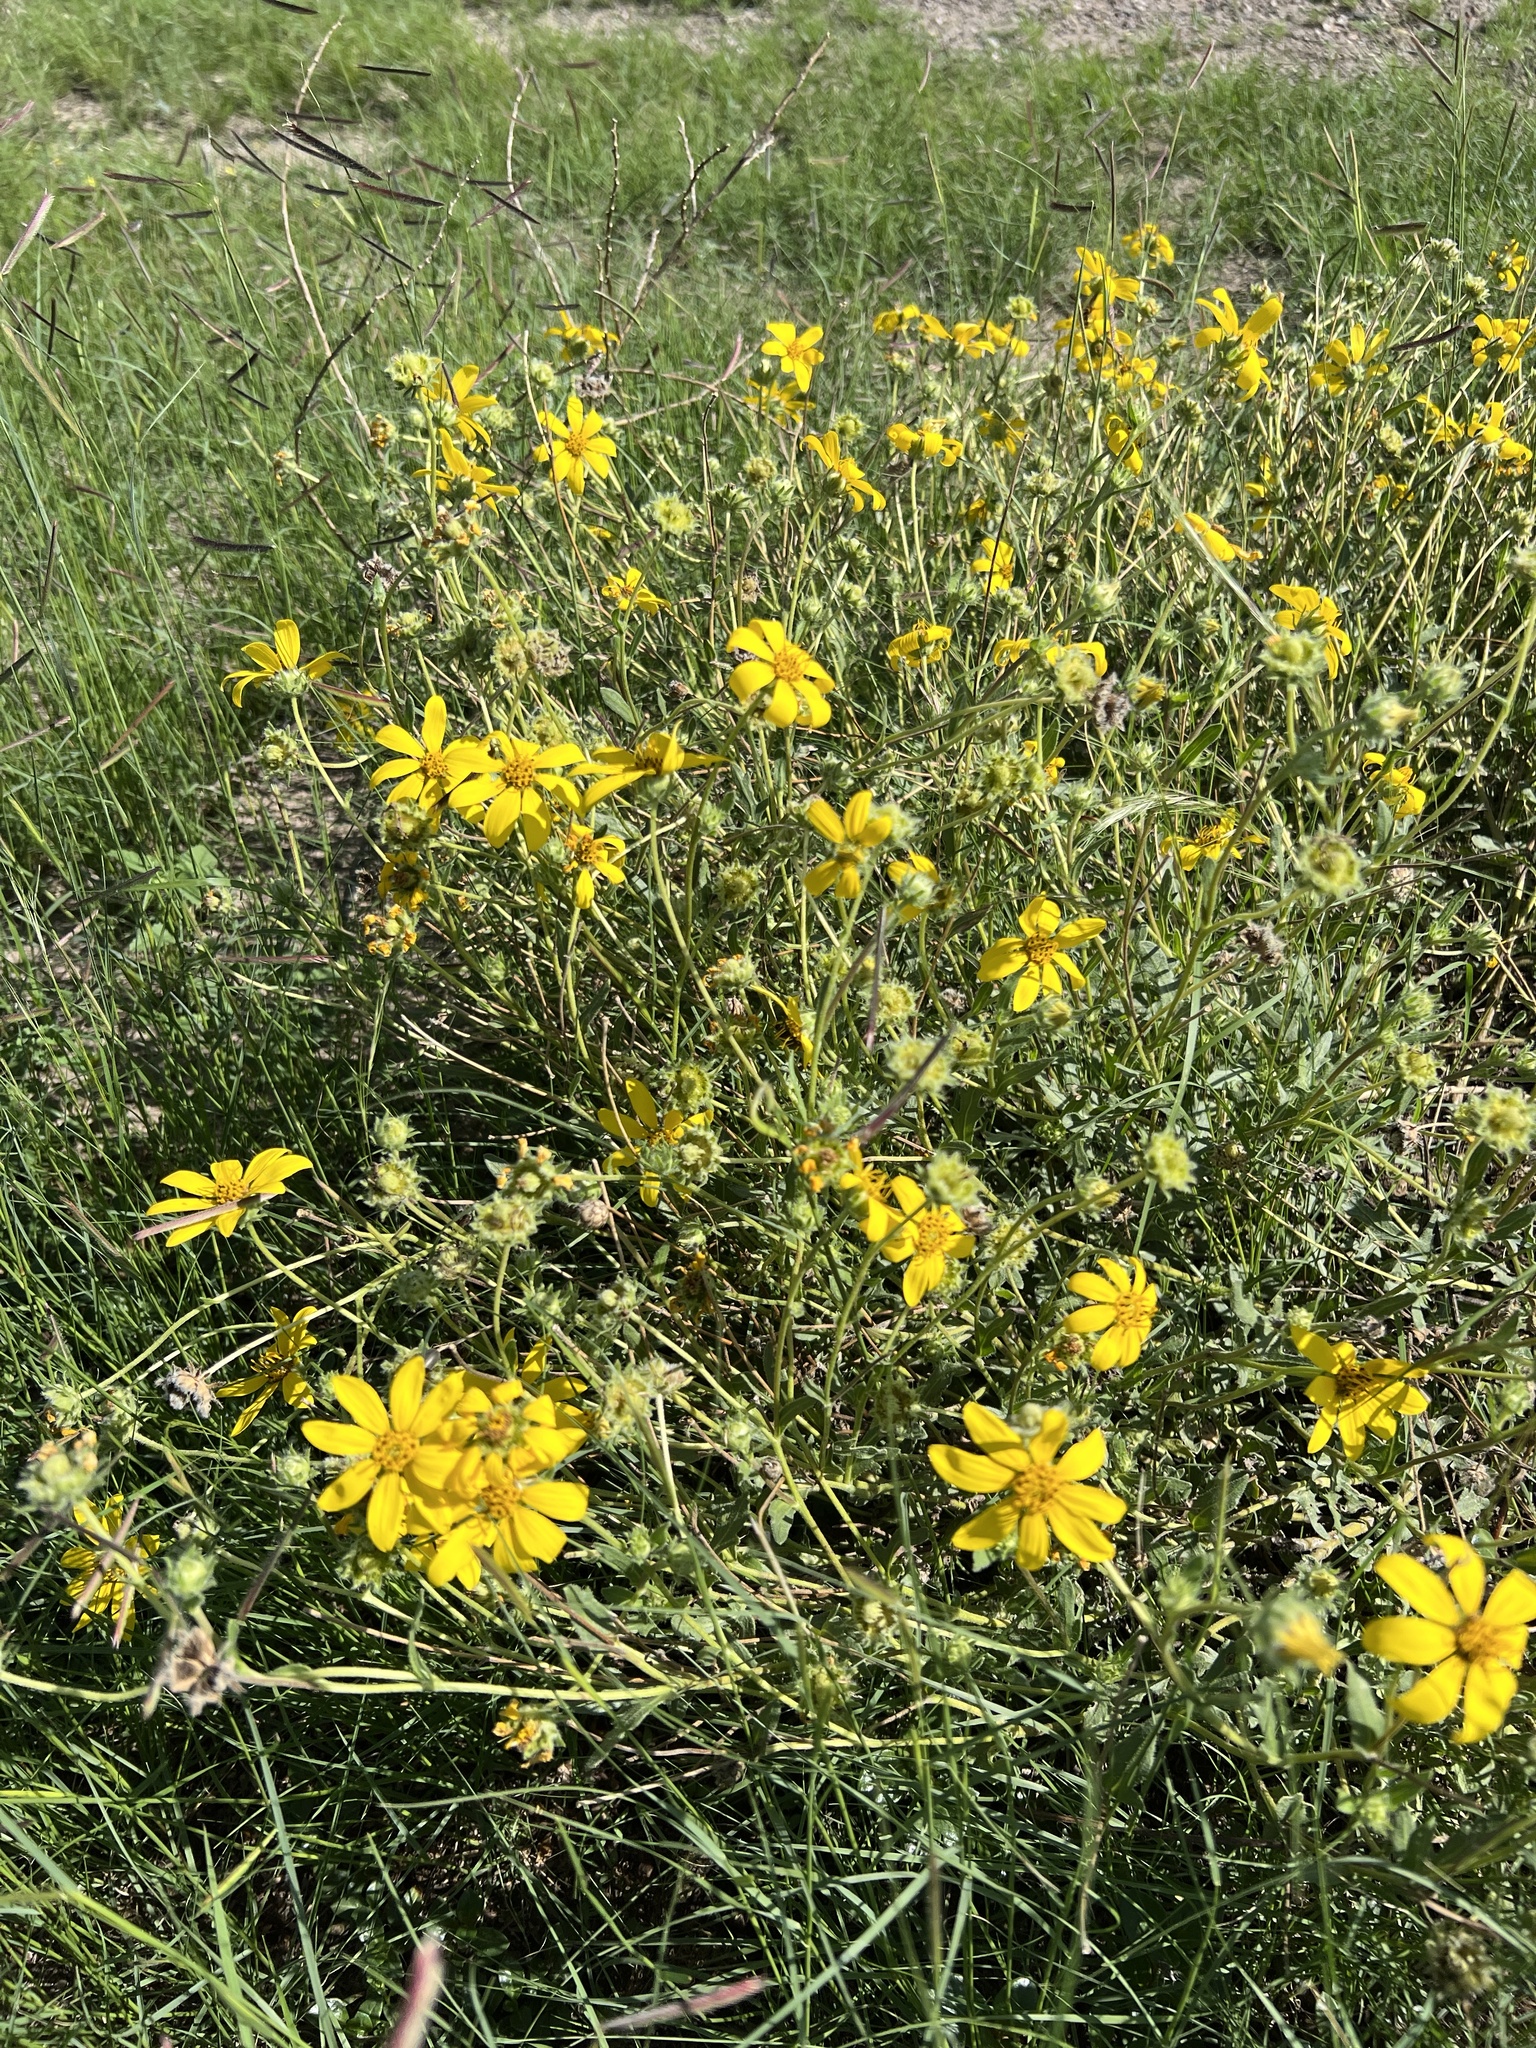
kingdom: Plantae
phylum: Tracheophyta
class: Magnoliopsida
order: Asterales
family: Asteraceae
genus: Engelmannia
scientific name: Engelmannia peristenia
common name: Engelmann's daisy
